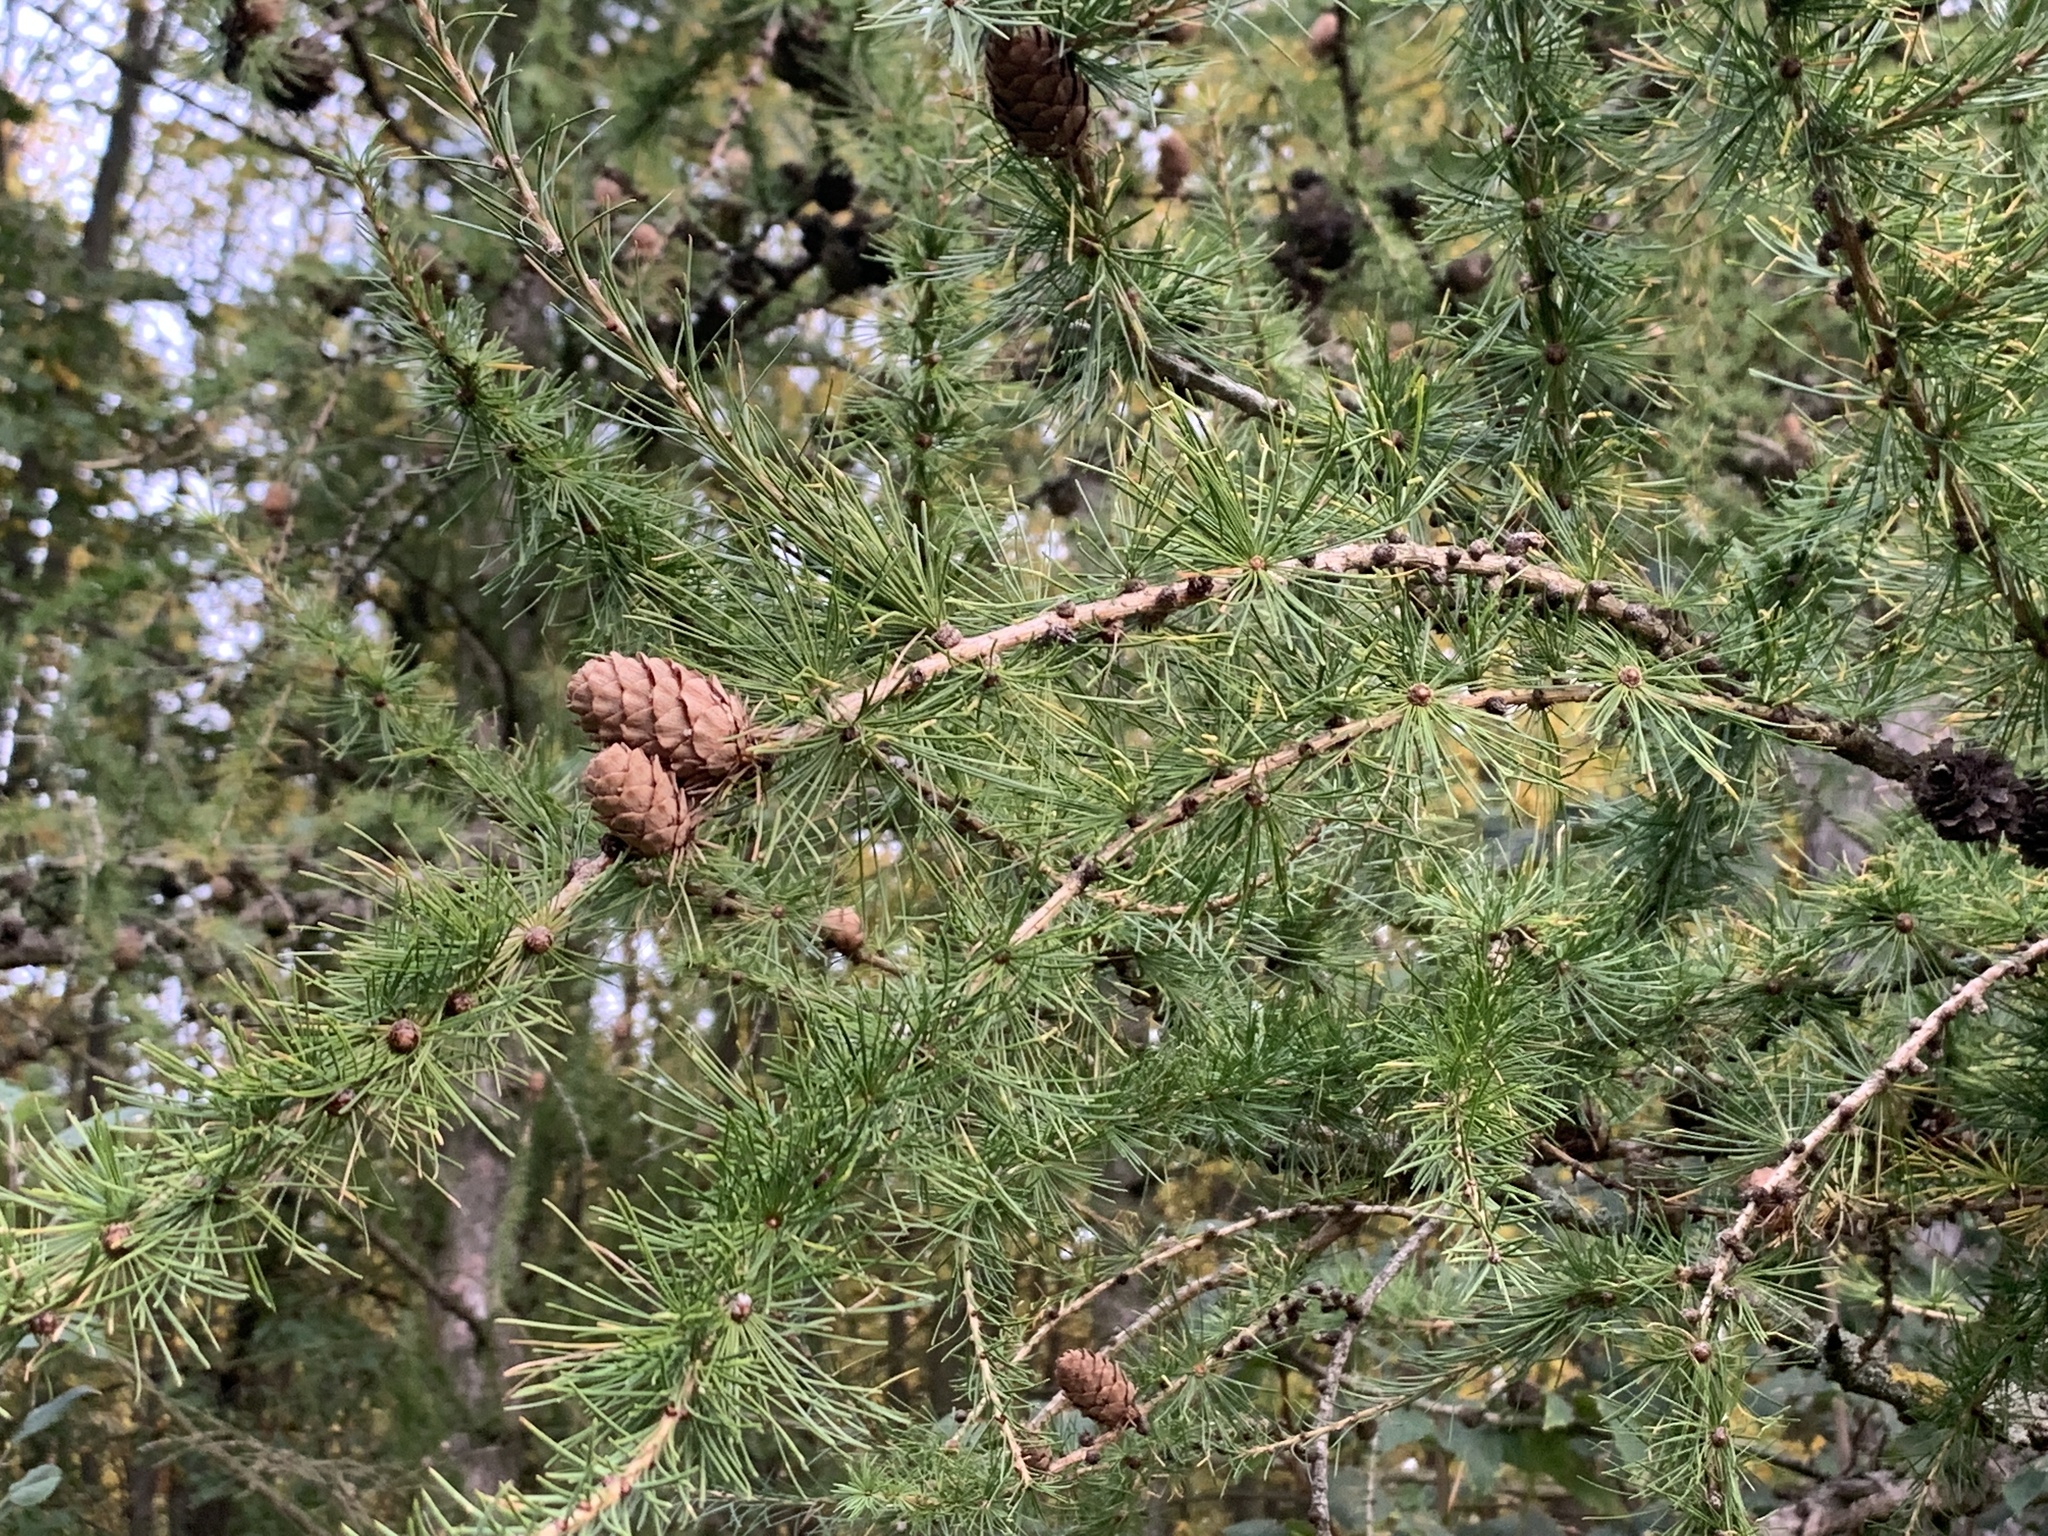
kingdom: Plantae
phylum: Tracheophyta
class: Pinopsida
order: Pinales
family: Pinaceae
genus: Larix
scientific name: Larix decidua
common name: European larch
